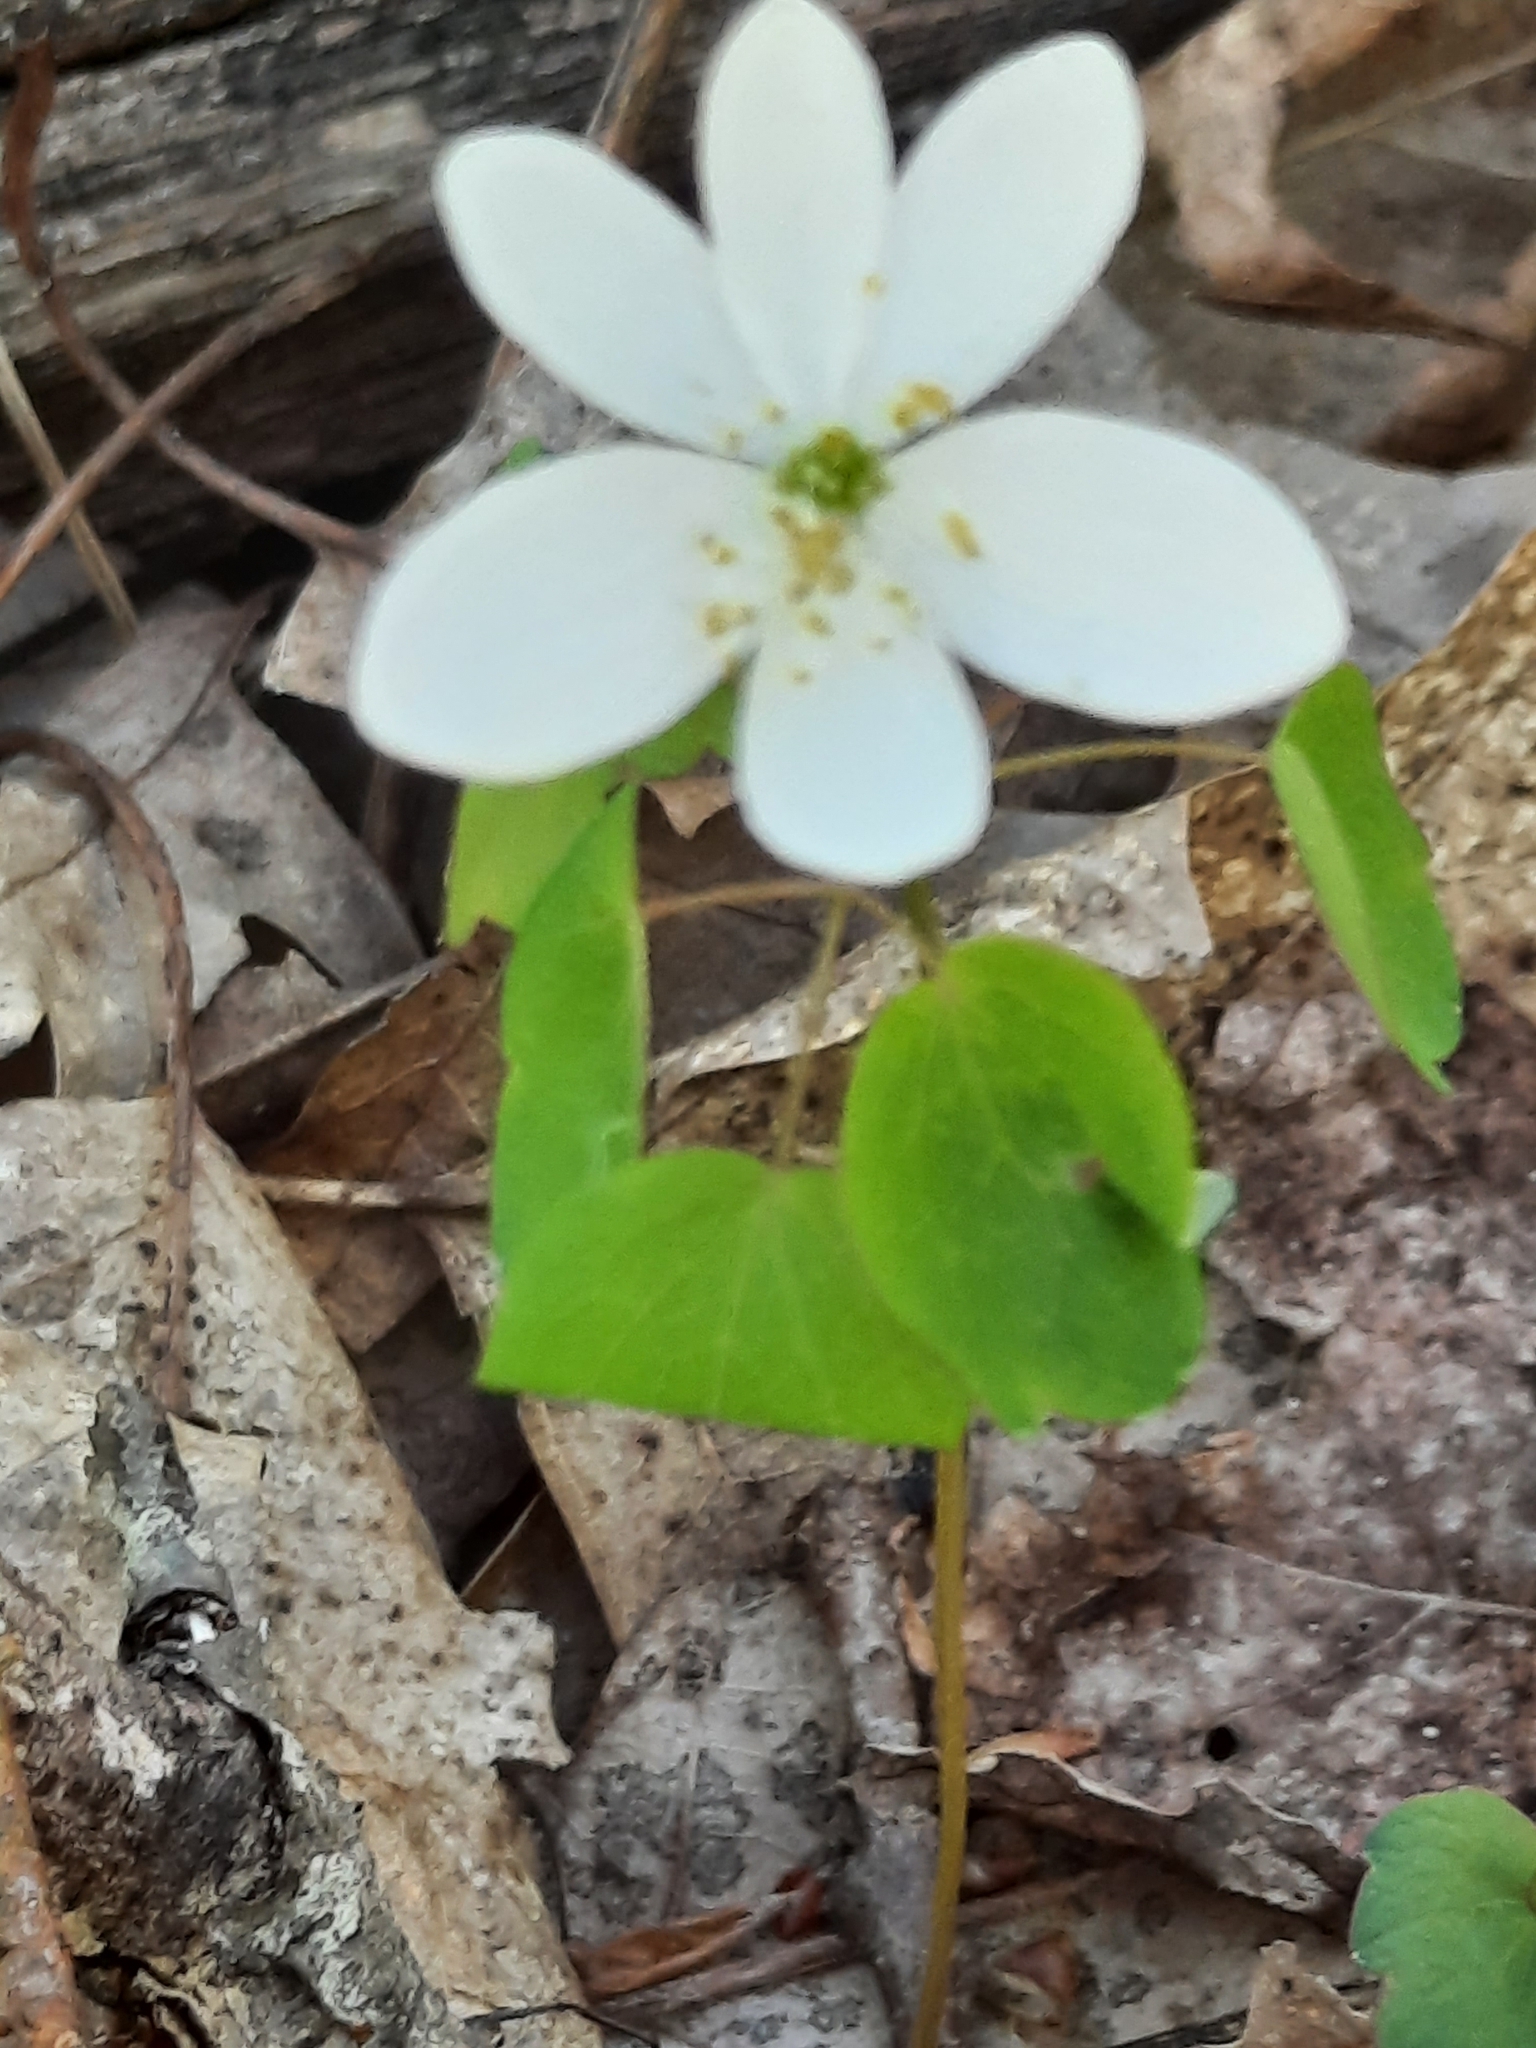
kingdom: Plantae
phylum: Tracheophyta
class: Magnoliopsida
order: Ranunculales
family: Ranunculaceae
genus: Thalictrum
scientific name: Thalictrum thalictroides
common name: Rue-anemone
